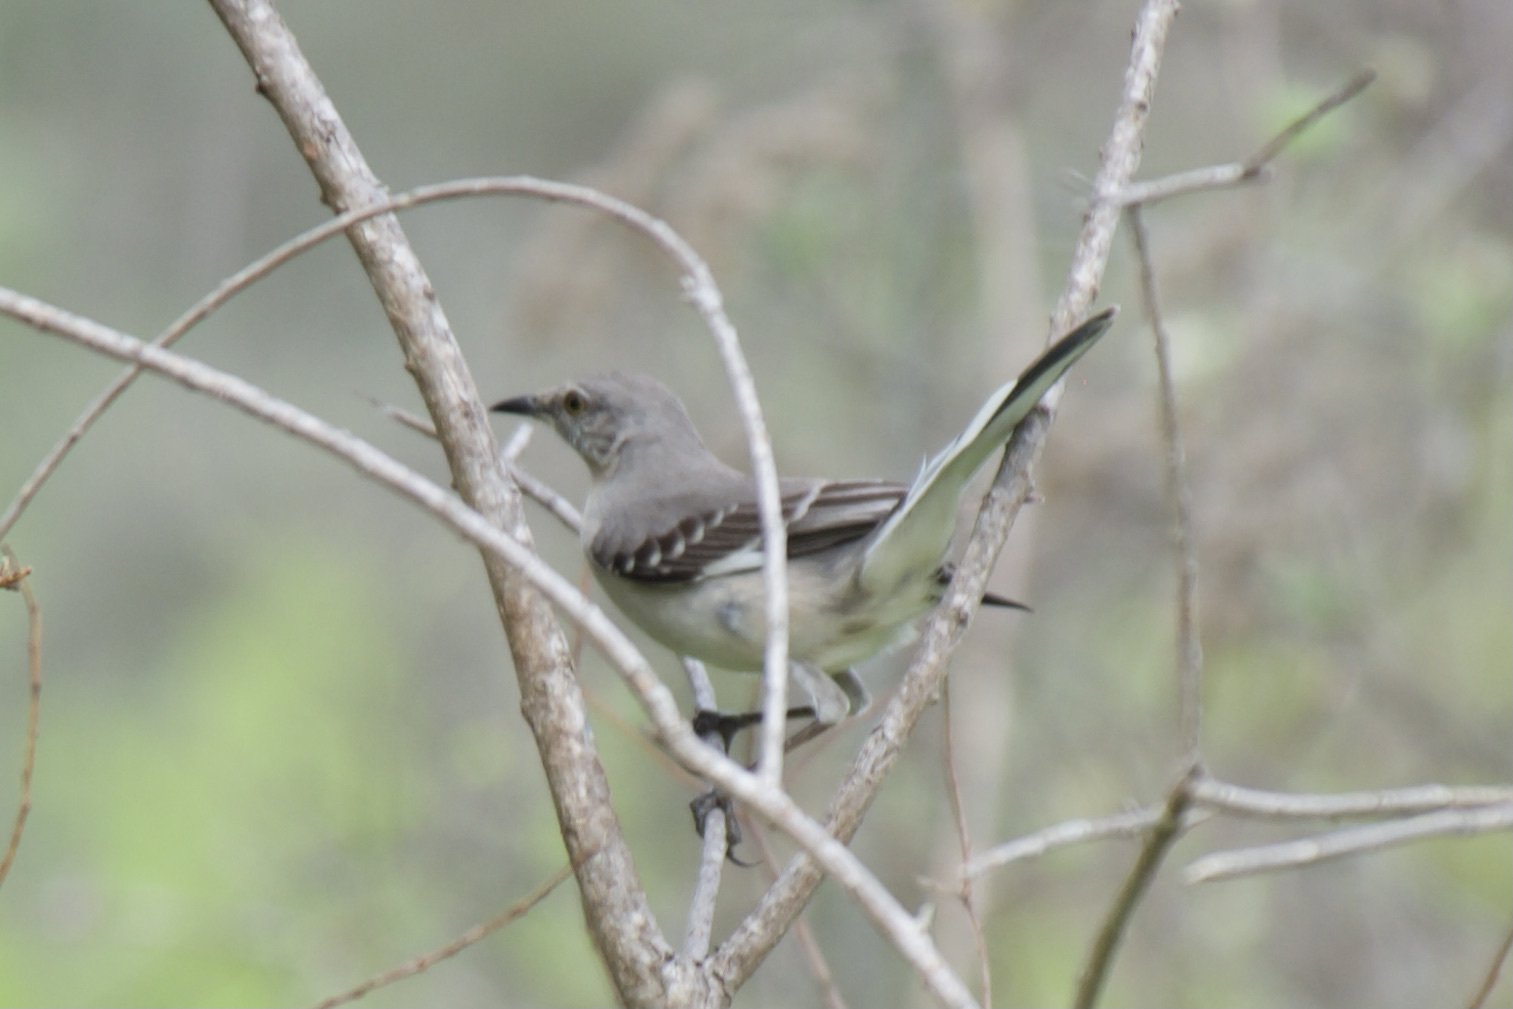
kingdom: Animalia
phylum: Chordata
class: Aves
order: Passeriformes
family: Mimidae
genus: Mimus
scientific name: Mimus polyglottos
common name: Northern mockingbird
